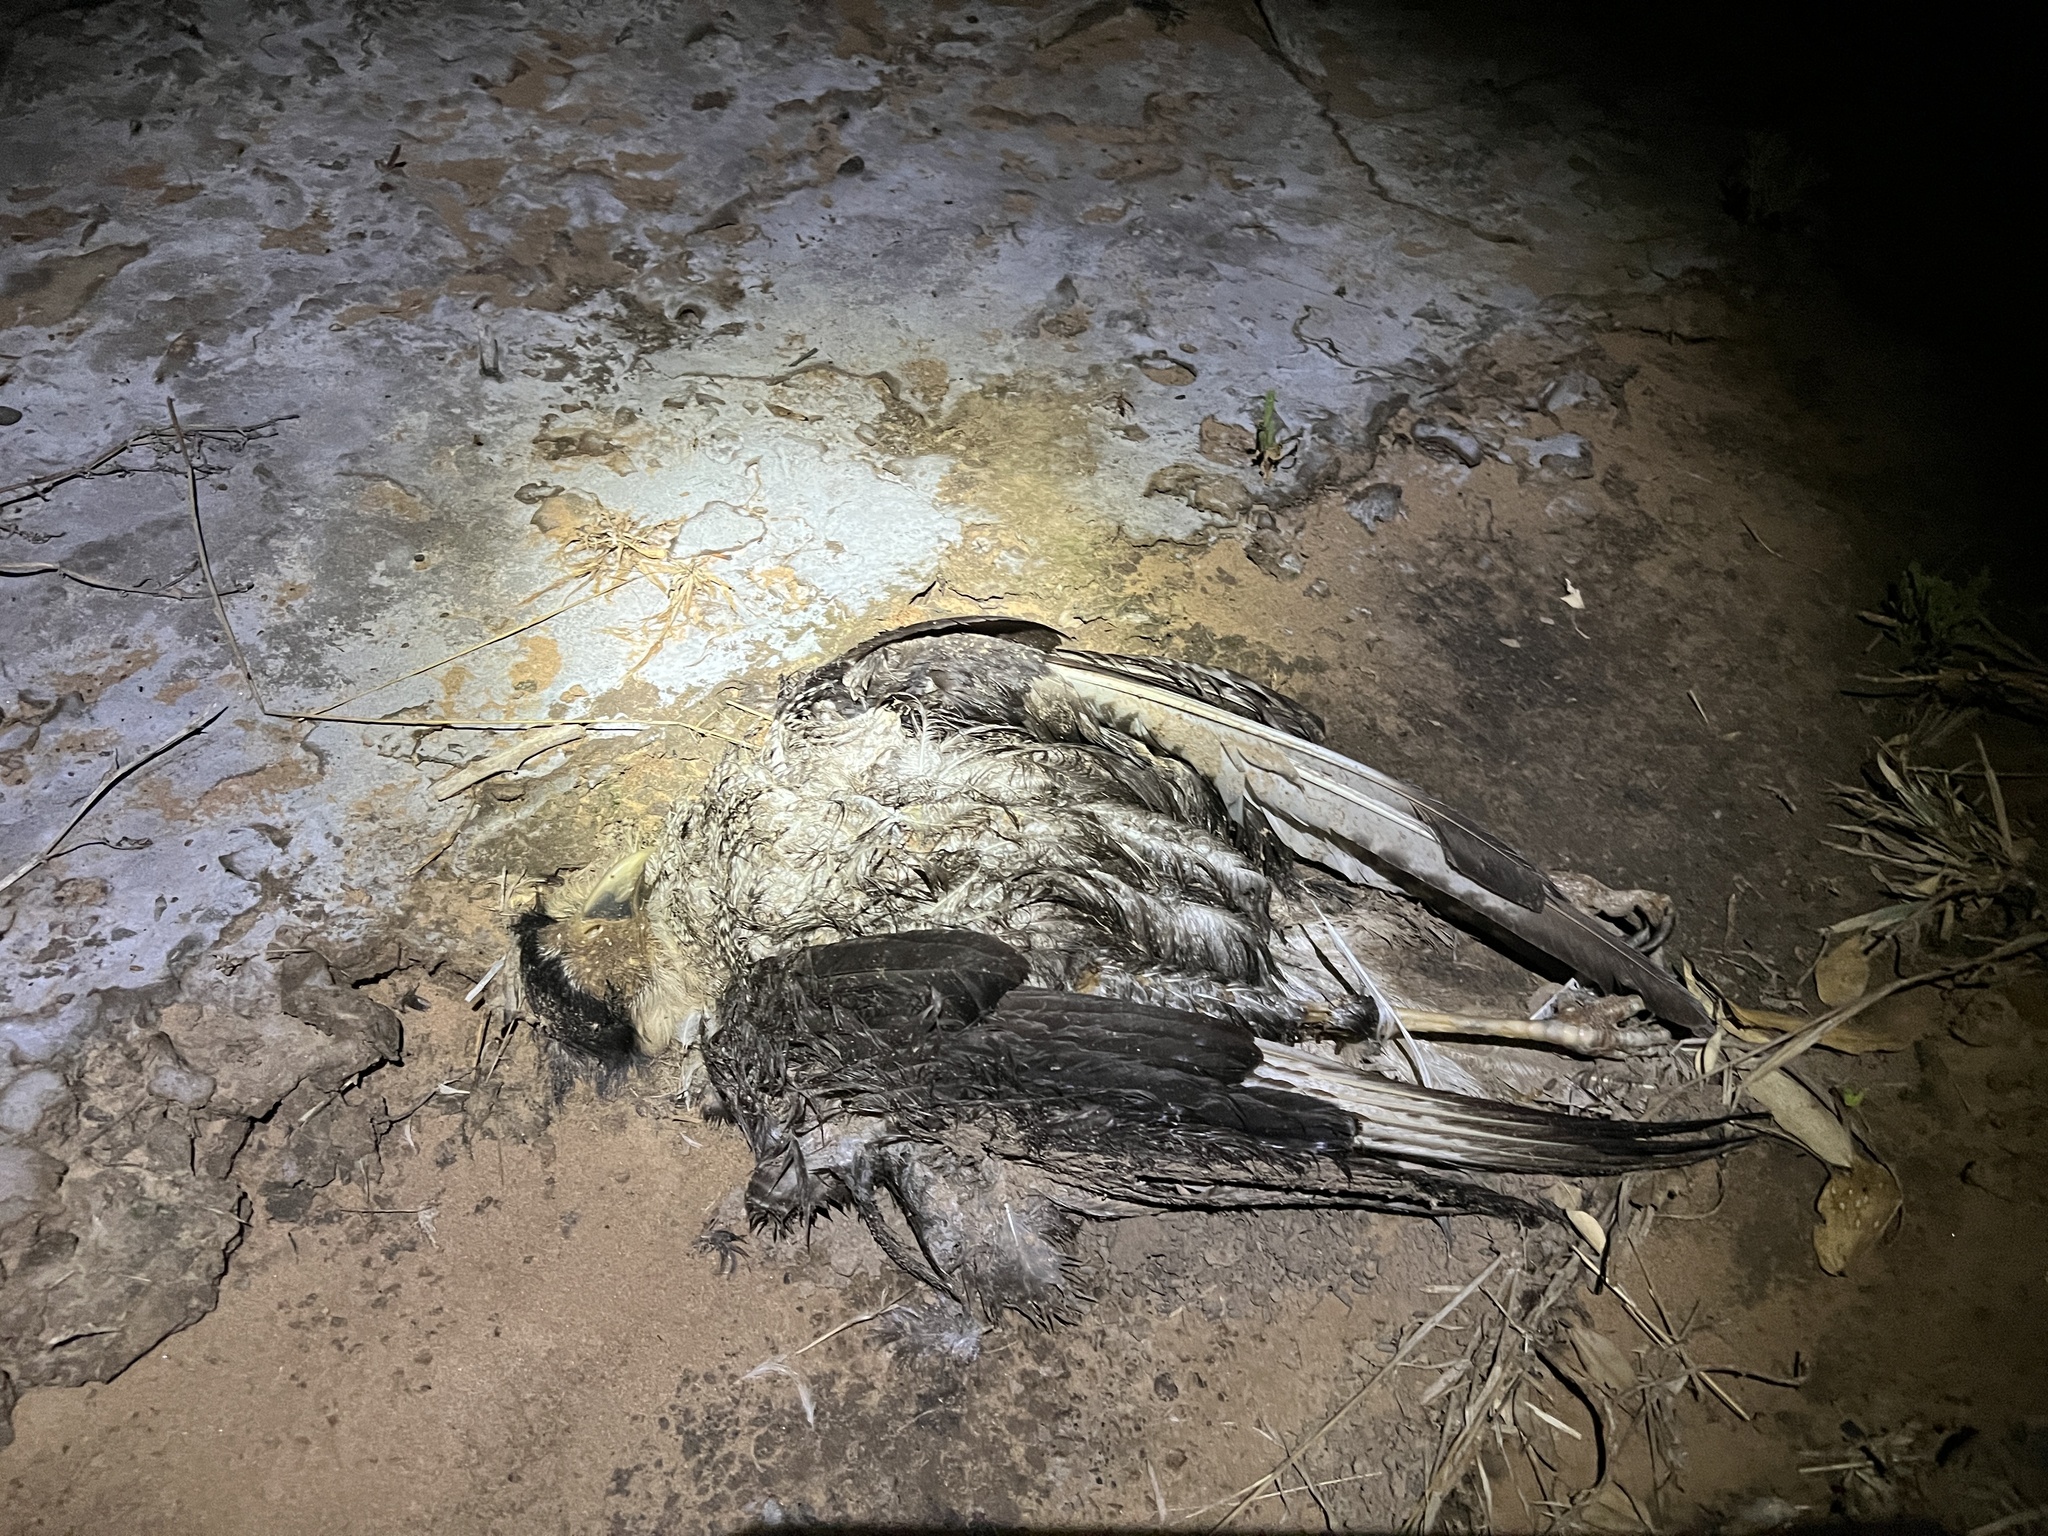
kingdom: Animalia
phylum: Chordata
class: Aves
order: Falconiformes
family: Falconidae
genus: Caracara
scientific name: Caracara plancus
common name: Southern caracara
